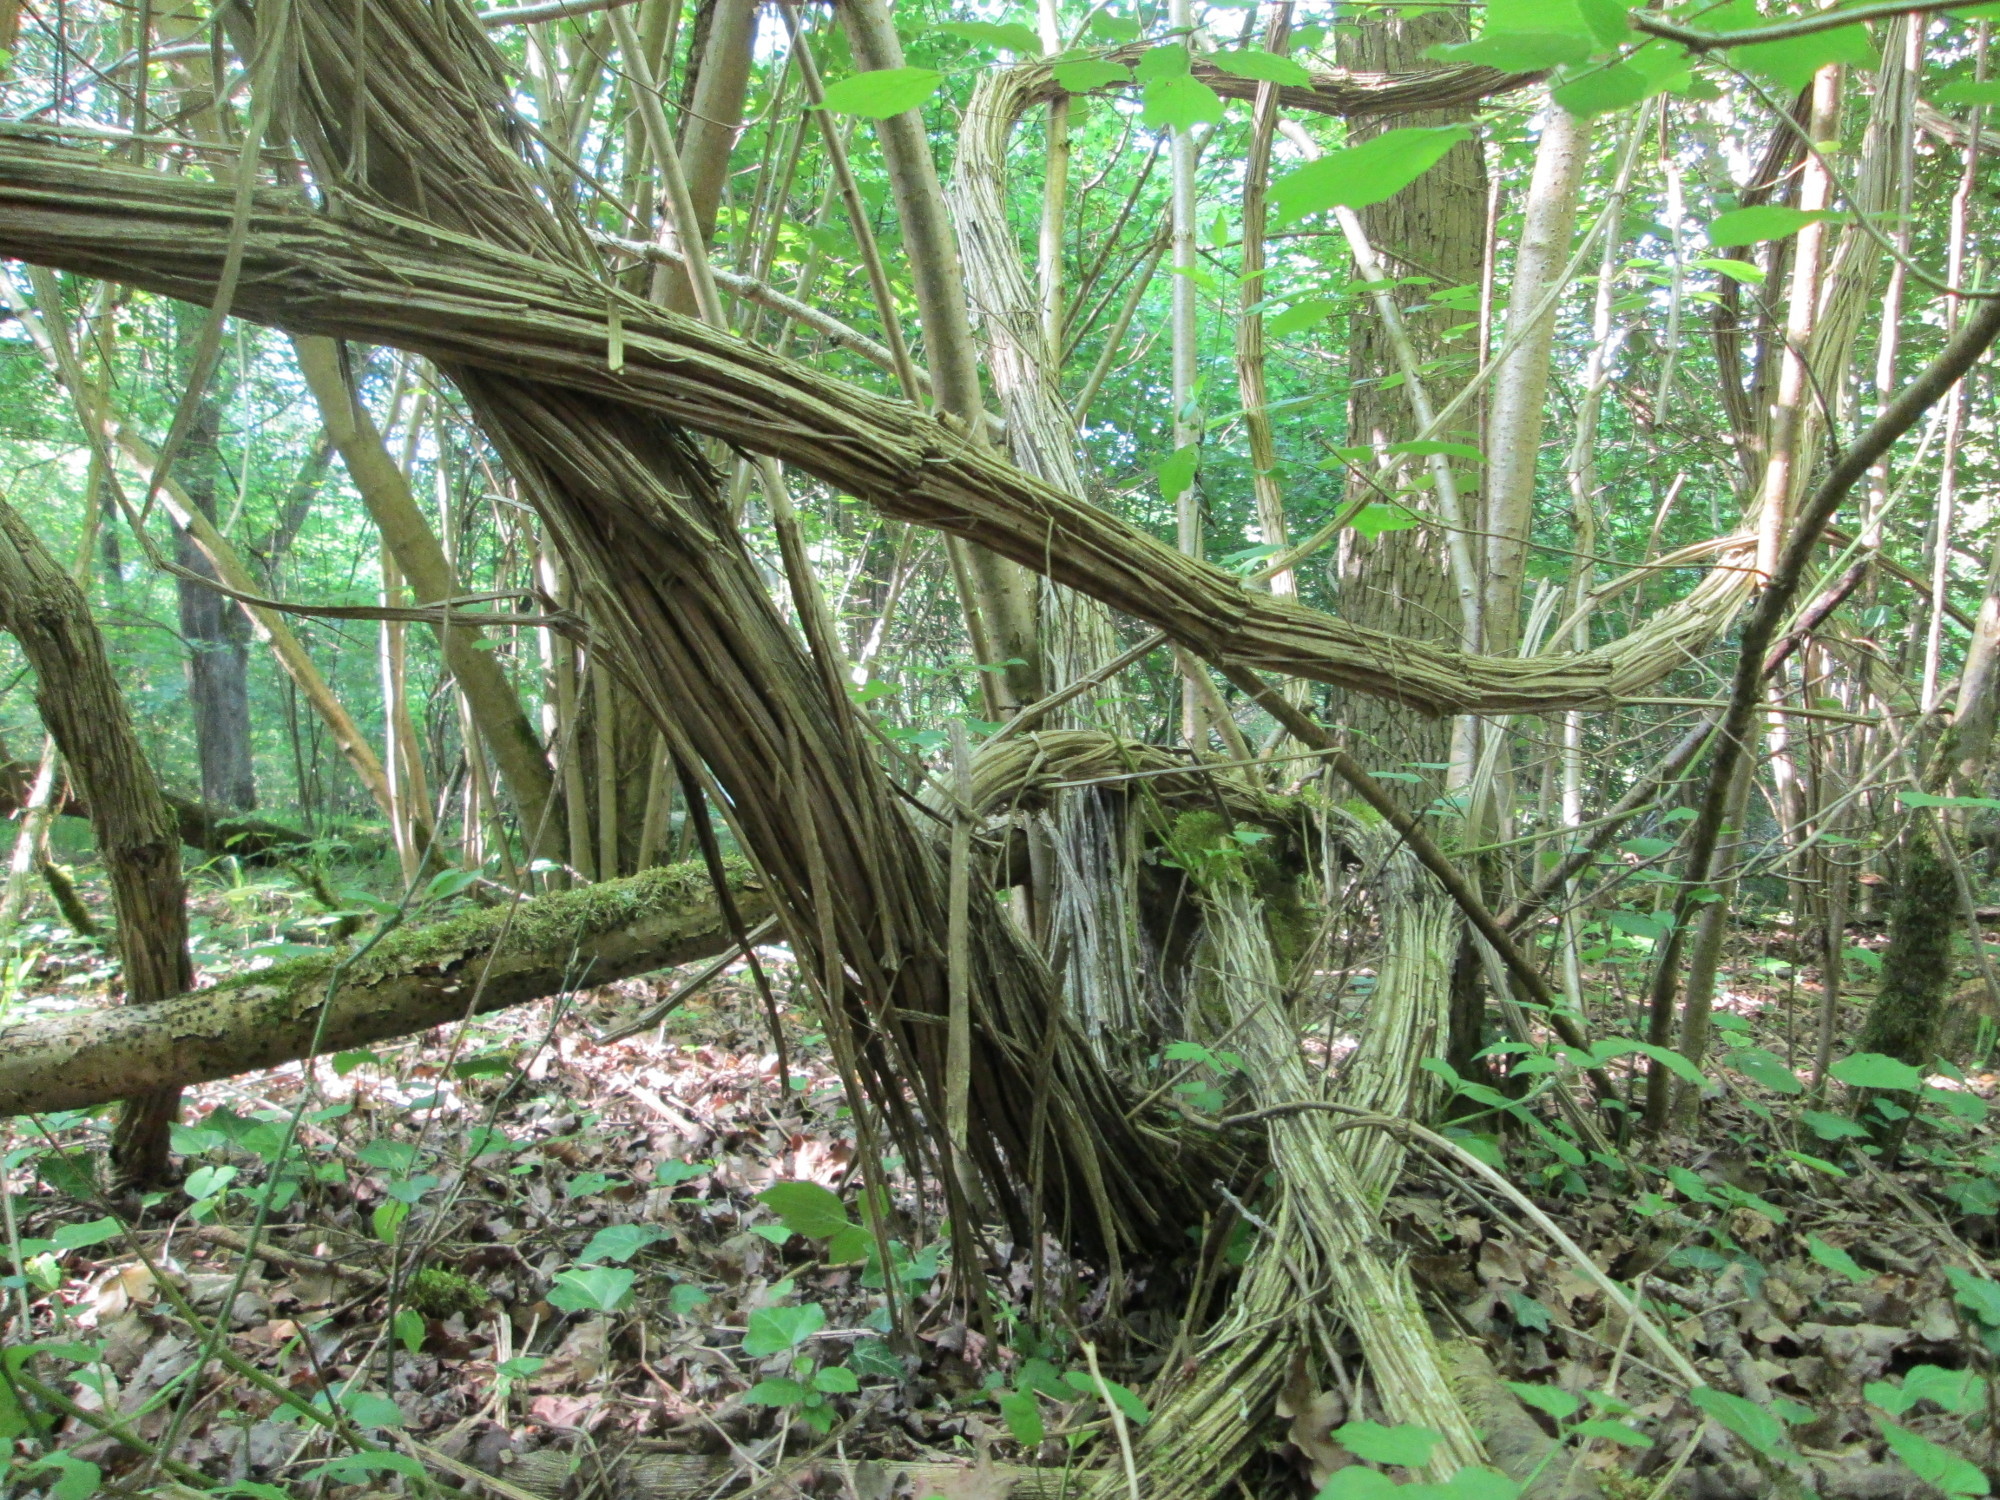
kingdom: Plantae
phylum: Tracheophyta
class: Magnoliopsida
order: Ranunculales
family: Ranunculaceae
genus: Clematis
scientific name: Clematis vitalba
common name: Evergreen clematis
